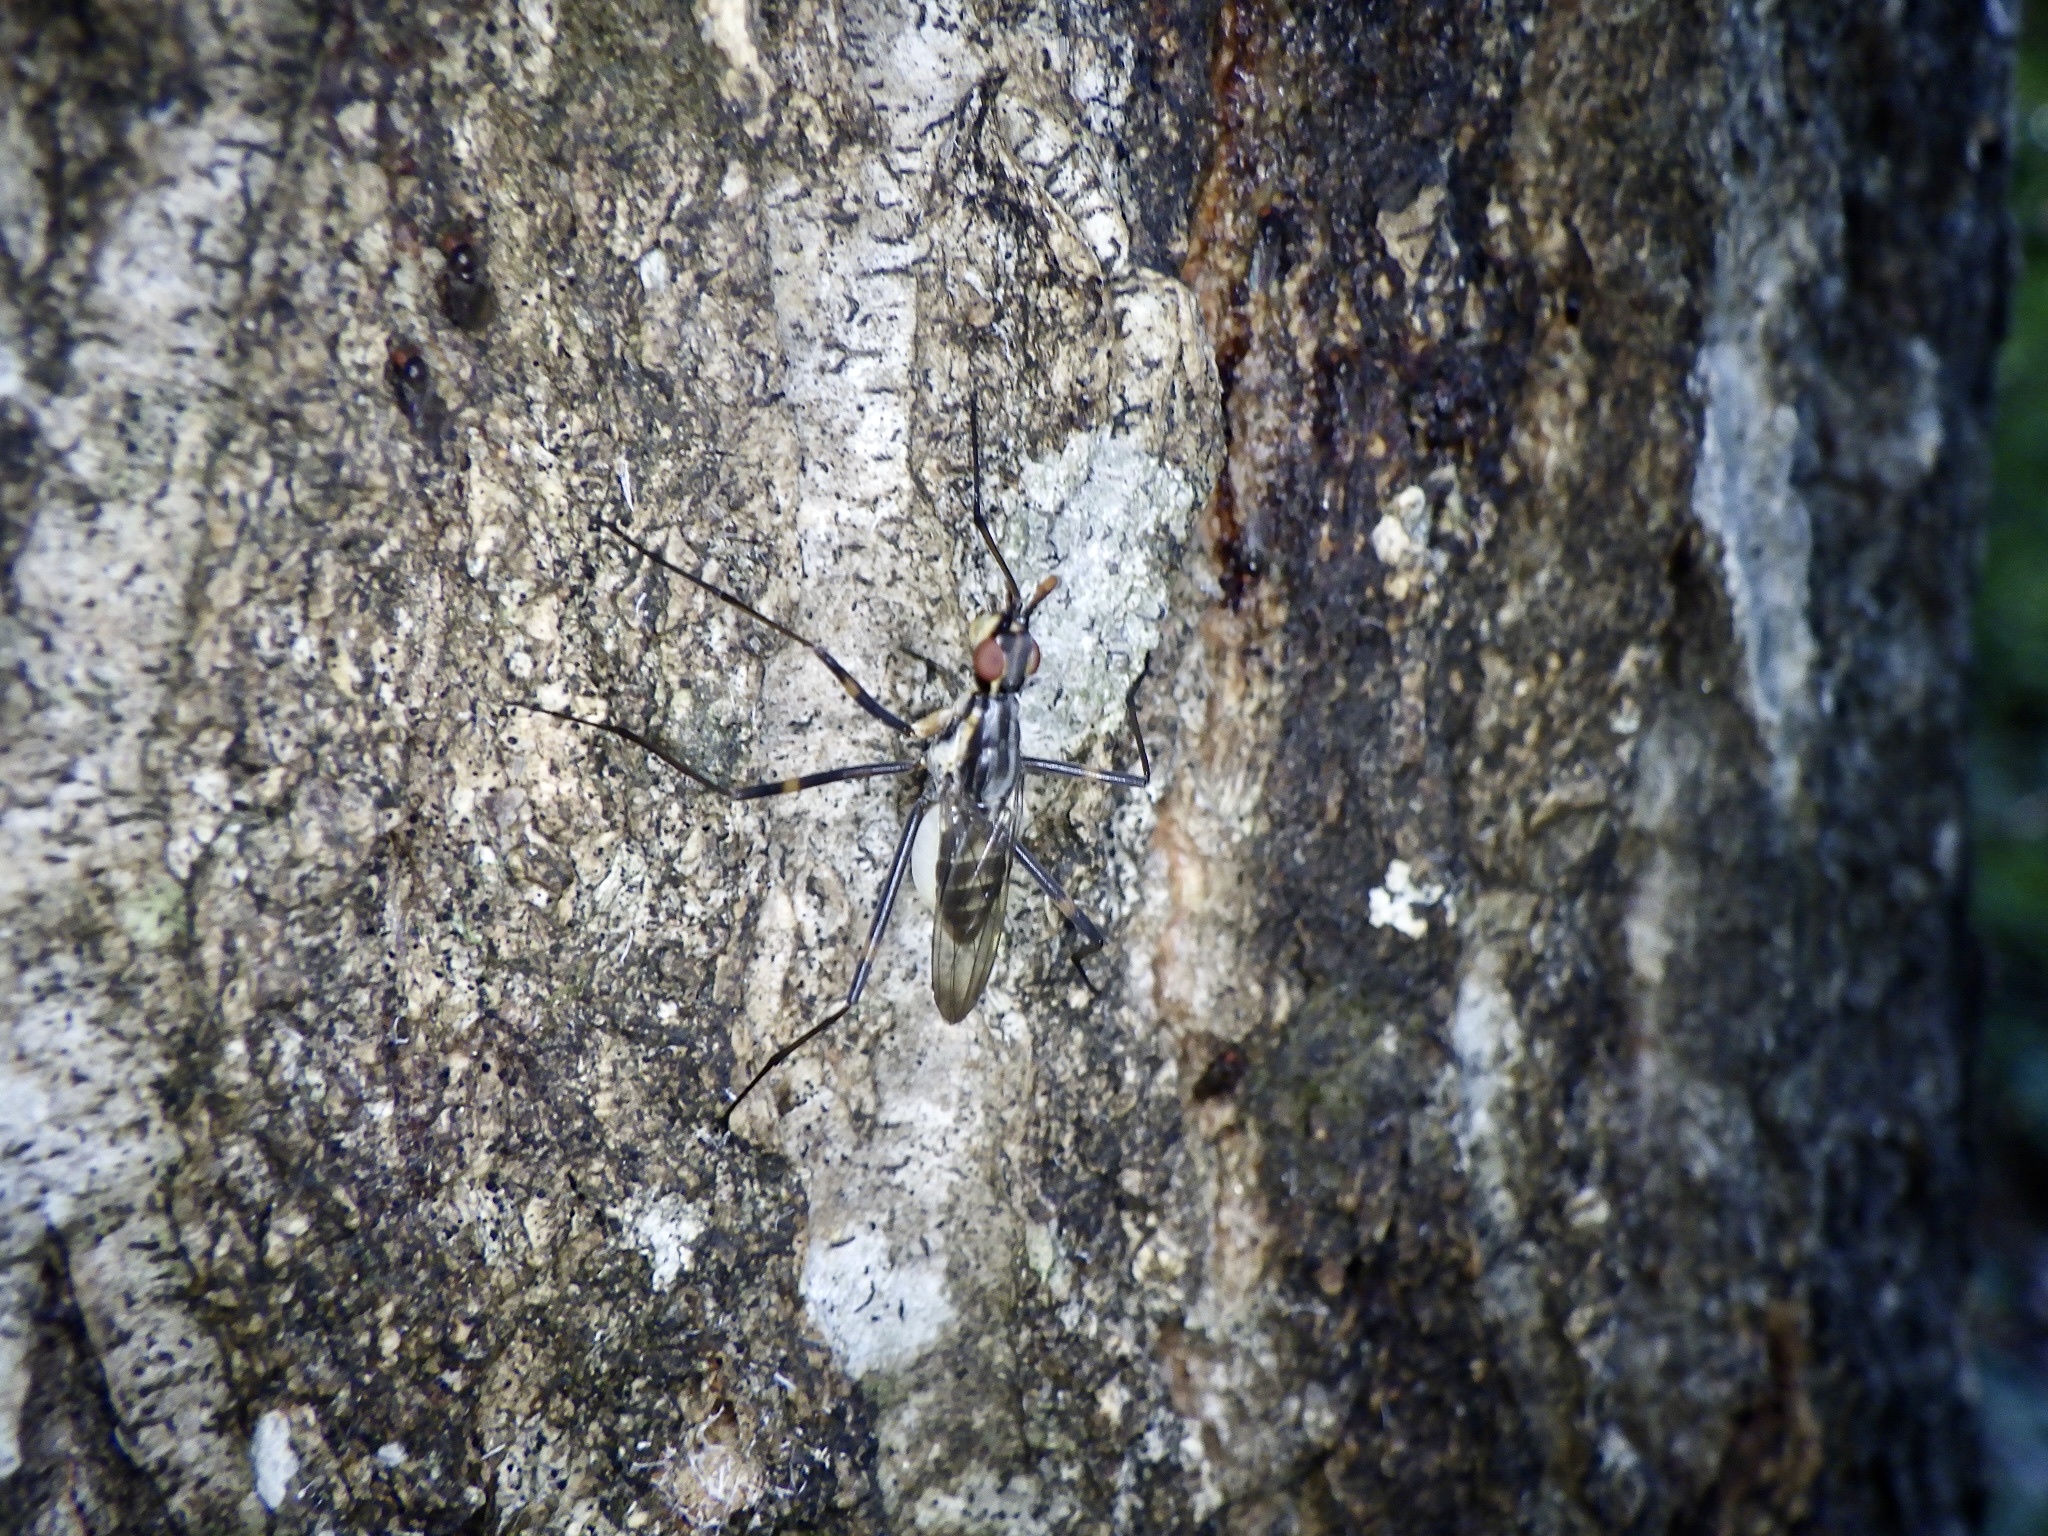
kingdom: Animalia
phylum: Arthropoda
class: Insecta
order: Diptera
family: Neriidae
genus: Stypocladius
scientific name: Stypocladius
